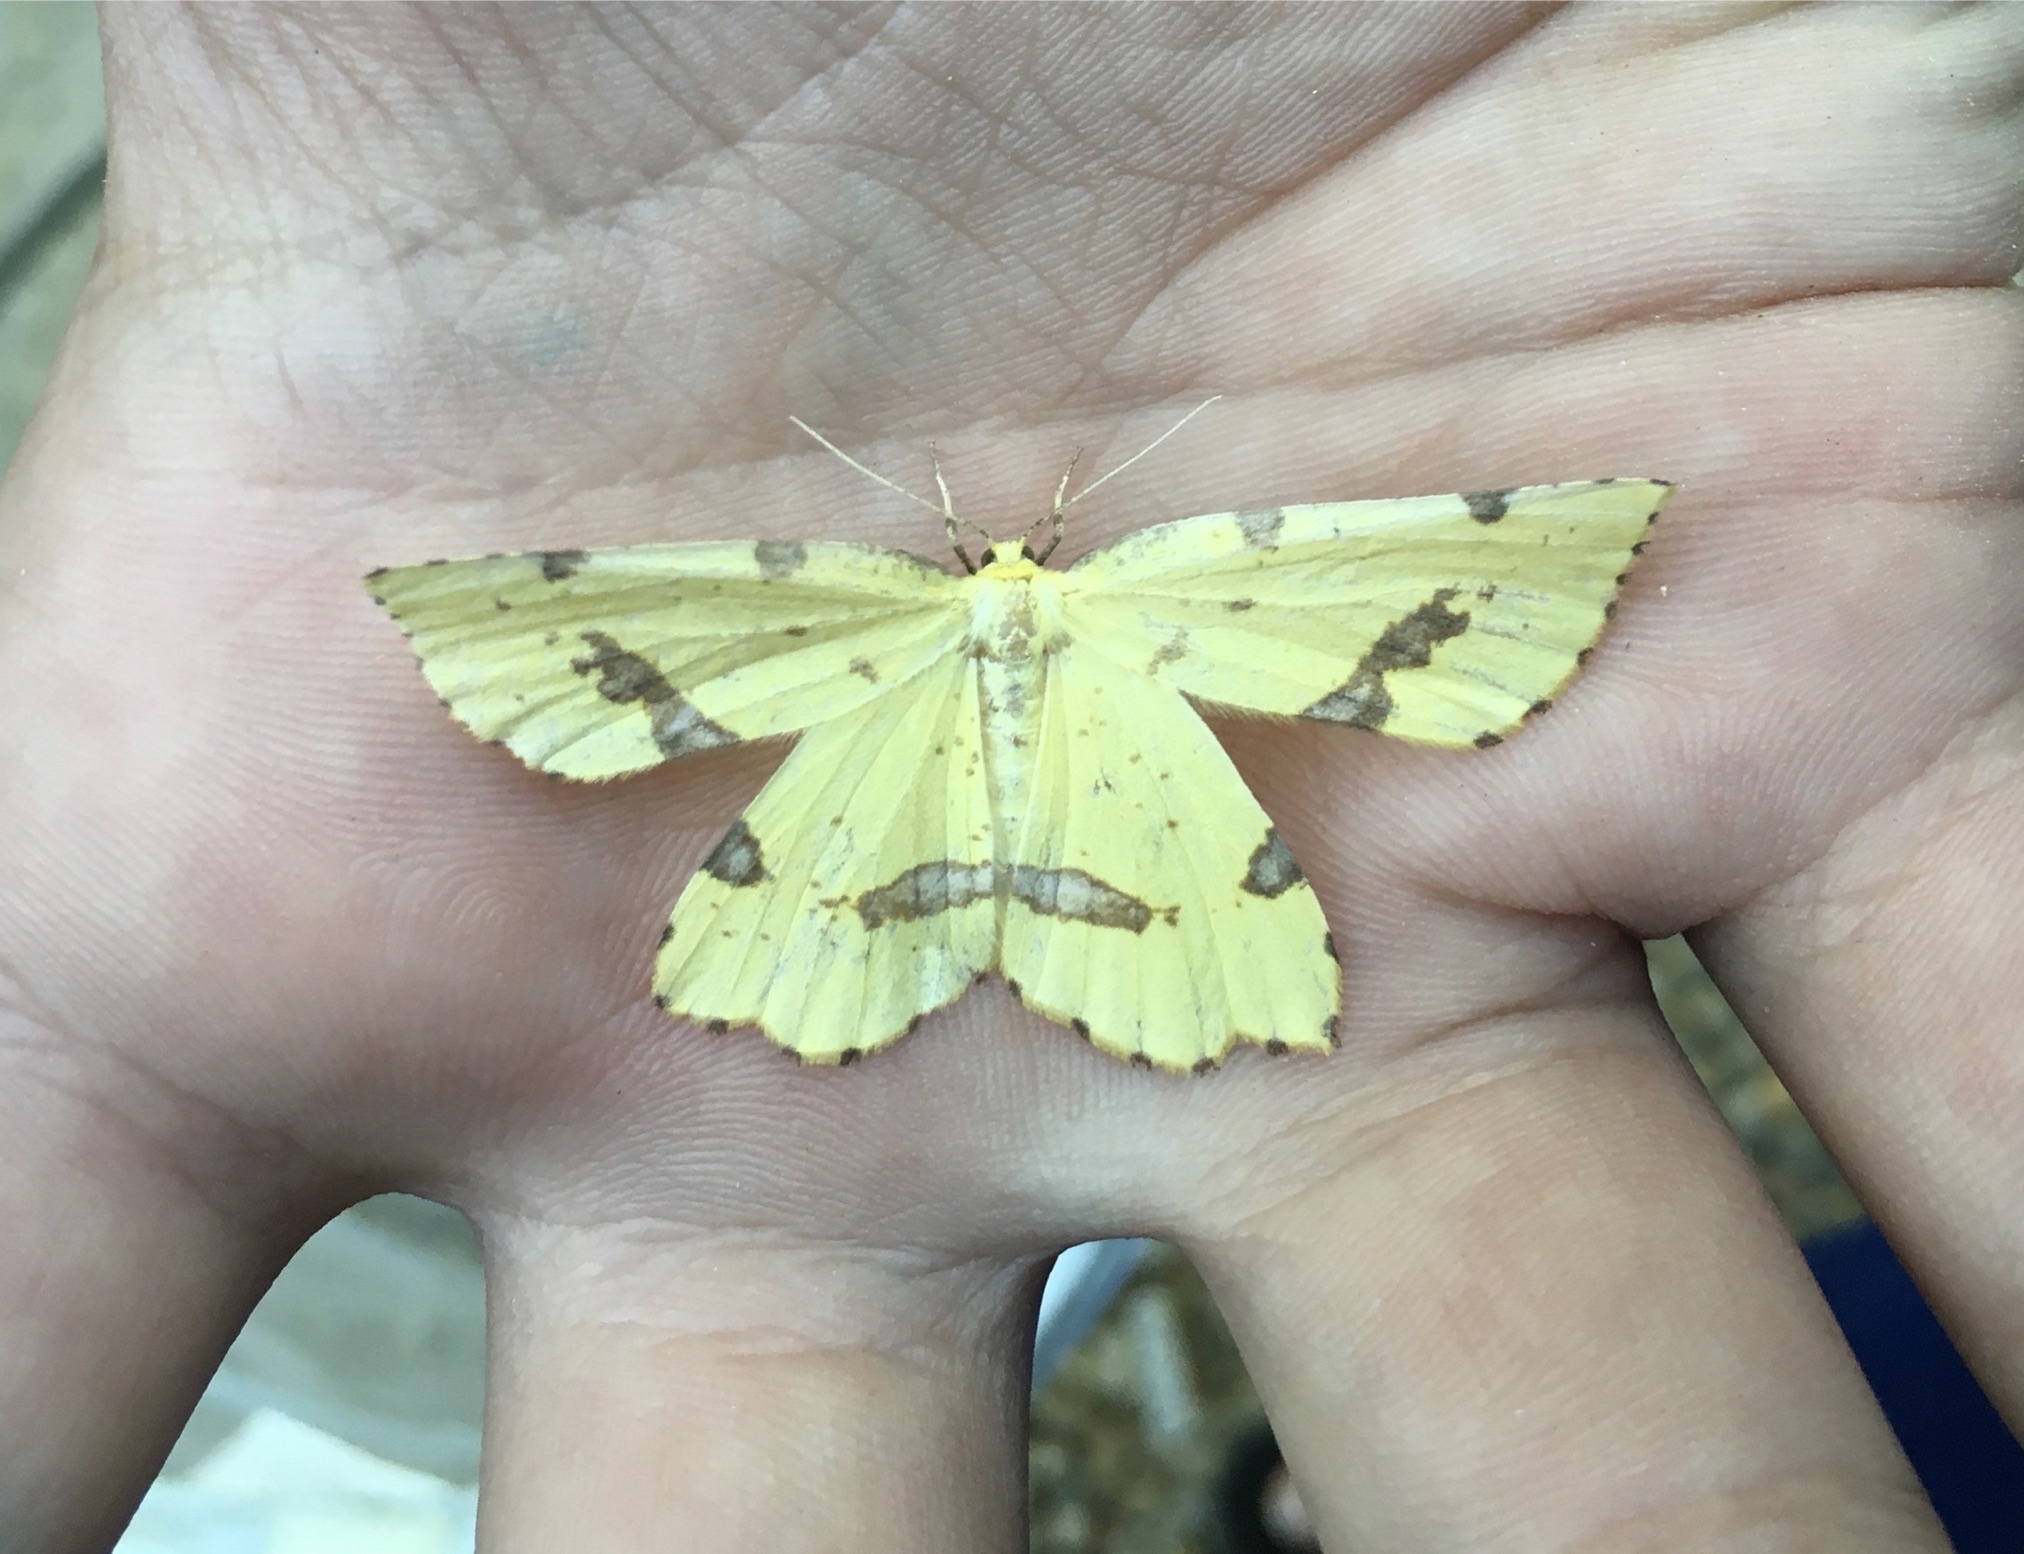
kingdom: Animalia
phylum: Arthropoda
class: Insecta
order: Lepidoptera
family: Geometridae
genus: Xanthotype
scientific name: Xanthotype
